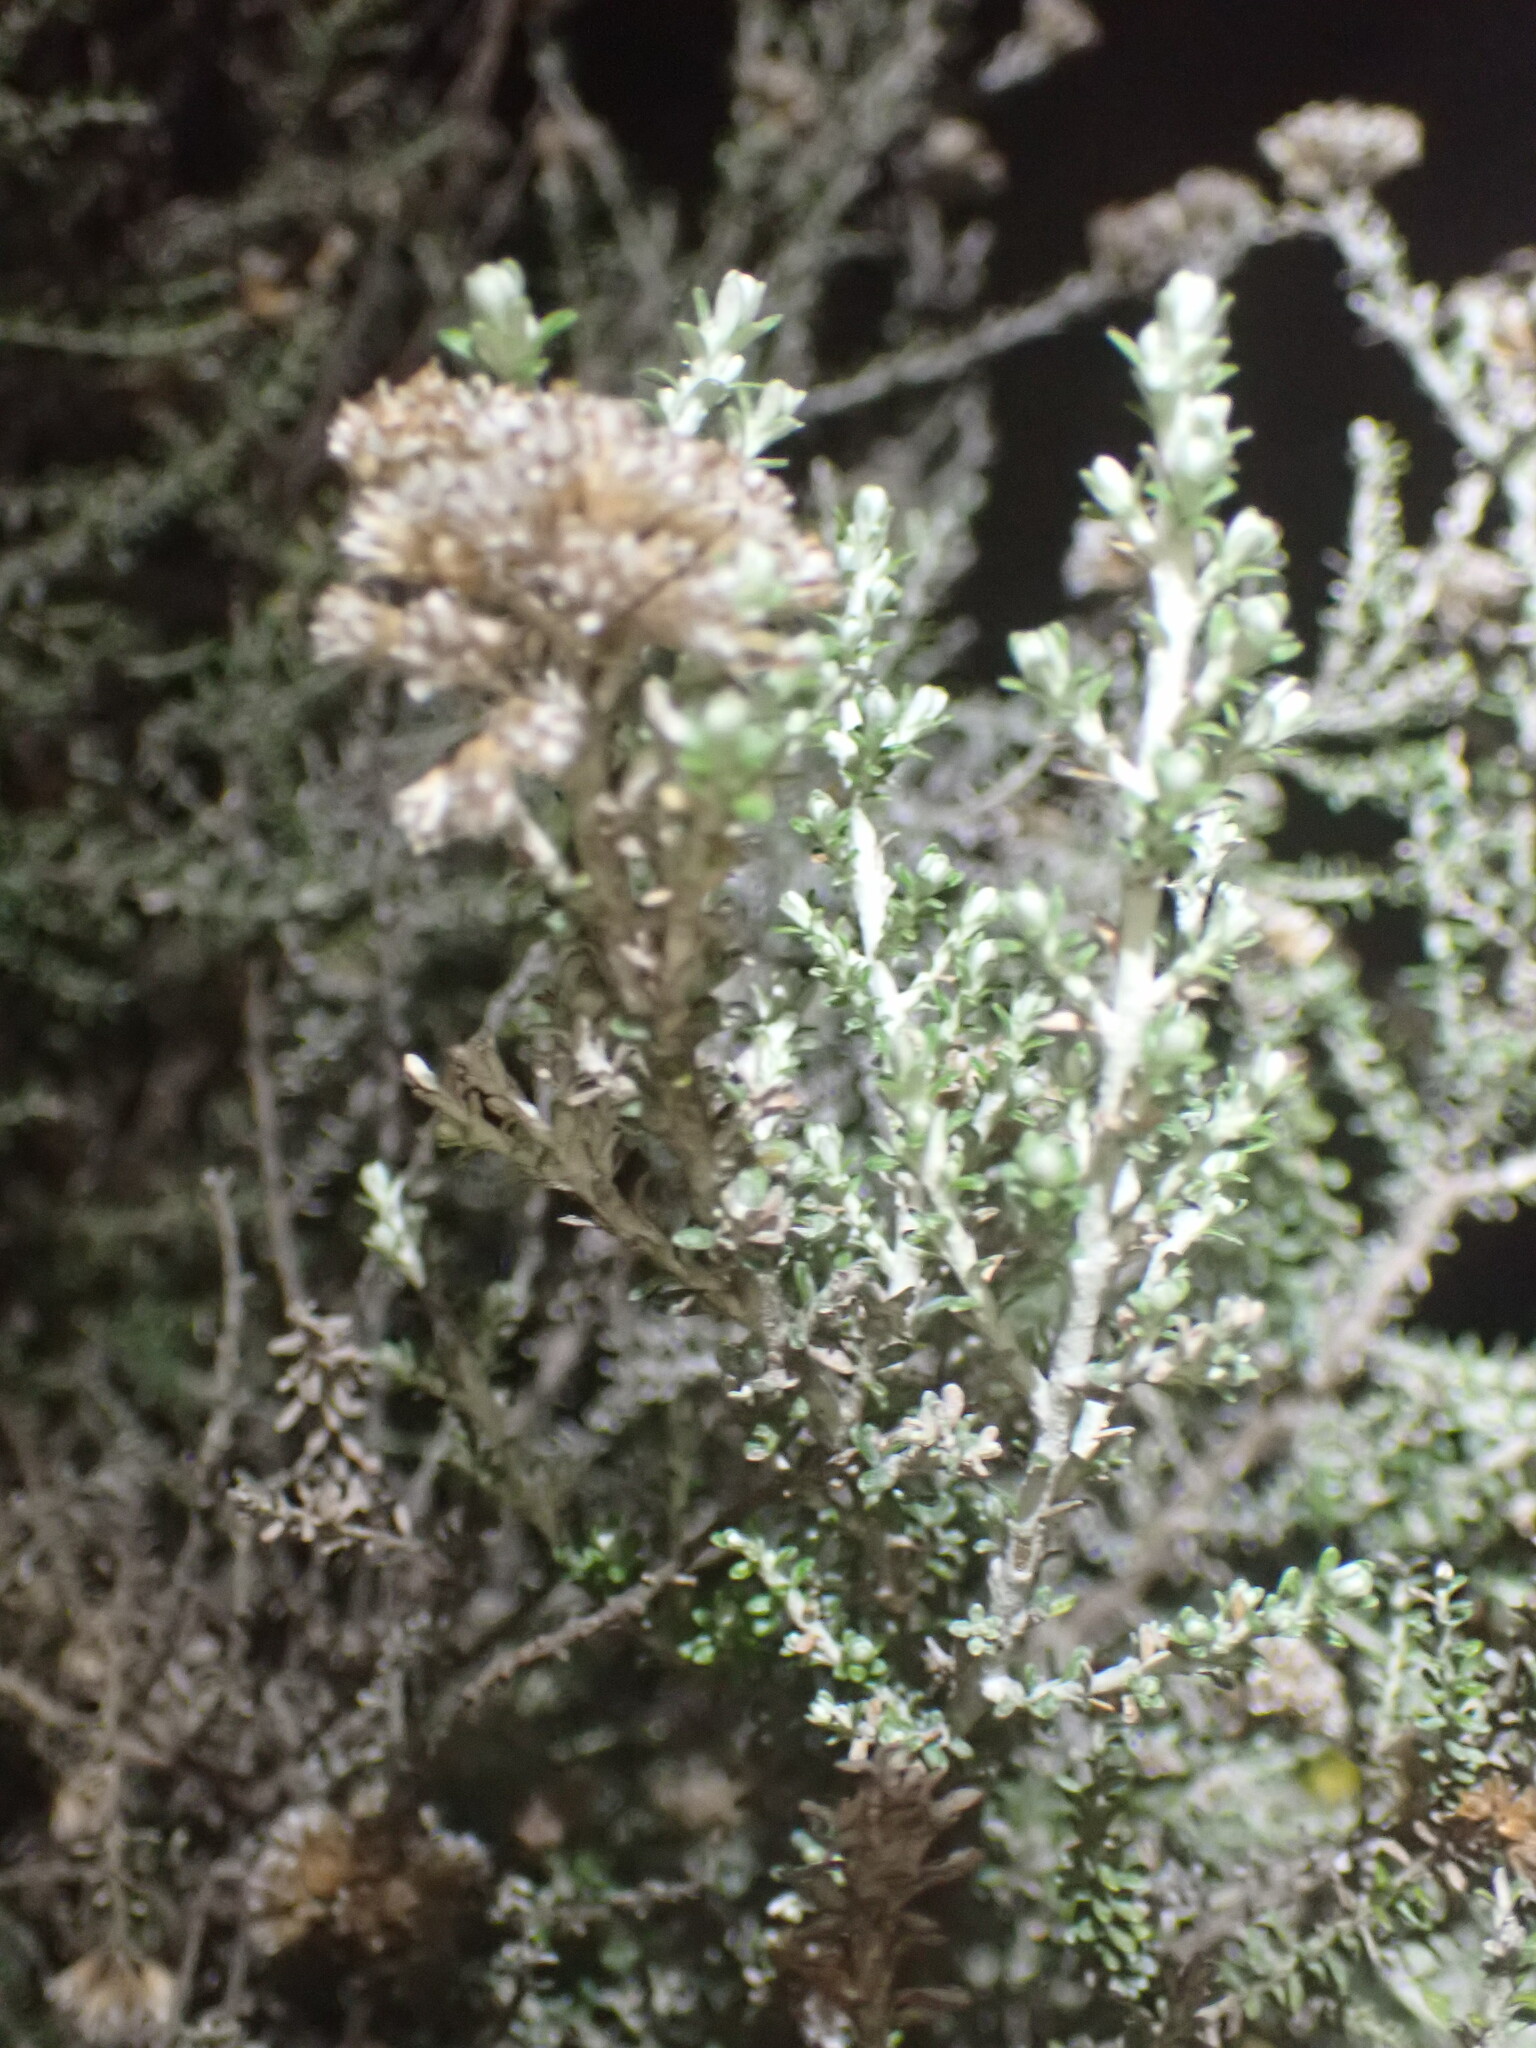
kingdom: Plantae
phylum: Tracheophyta
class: Magnoliopsida
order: Asterales
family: Asteraceae
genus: Ozothamnus
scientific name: Ozothamnus leptophyllus
